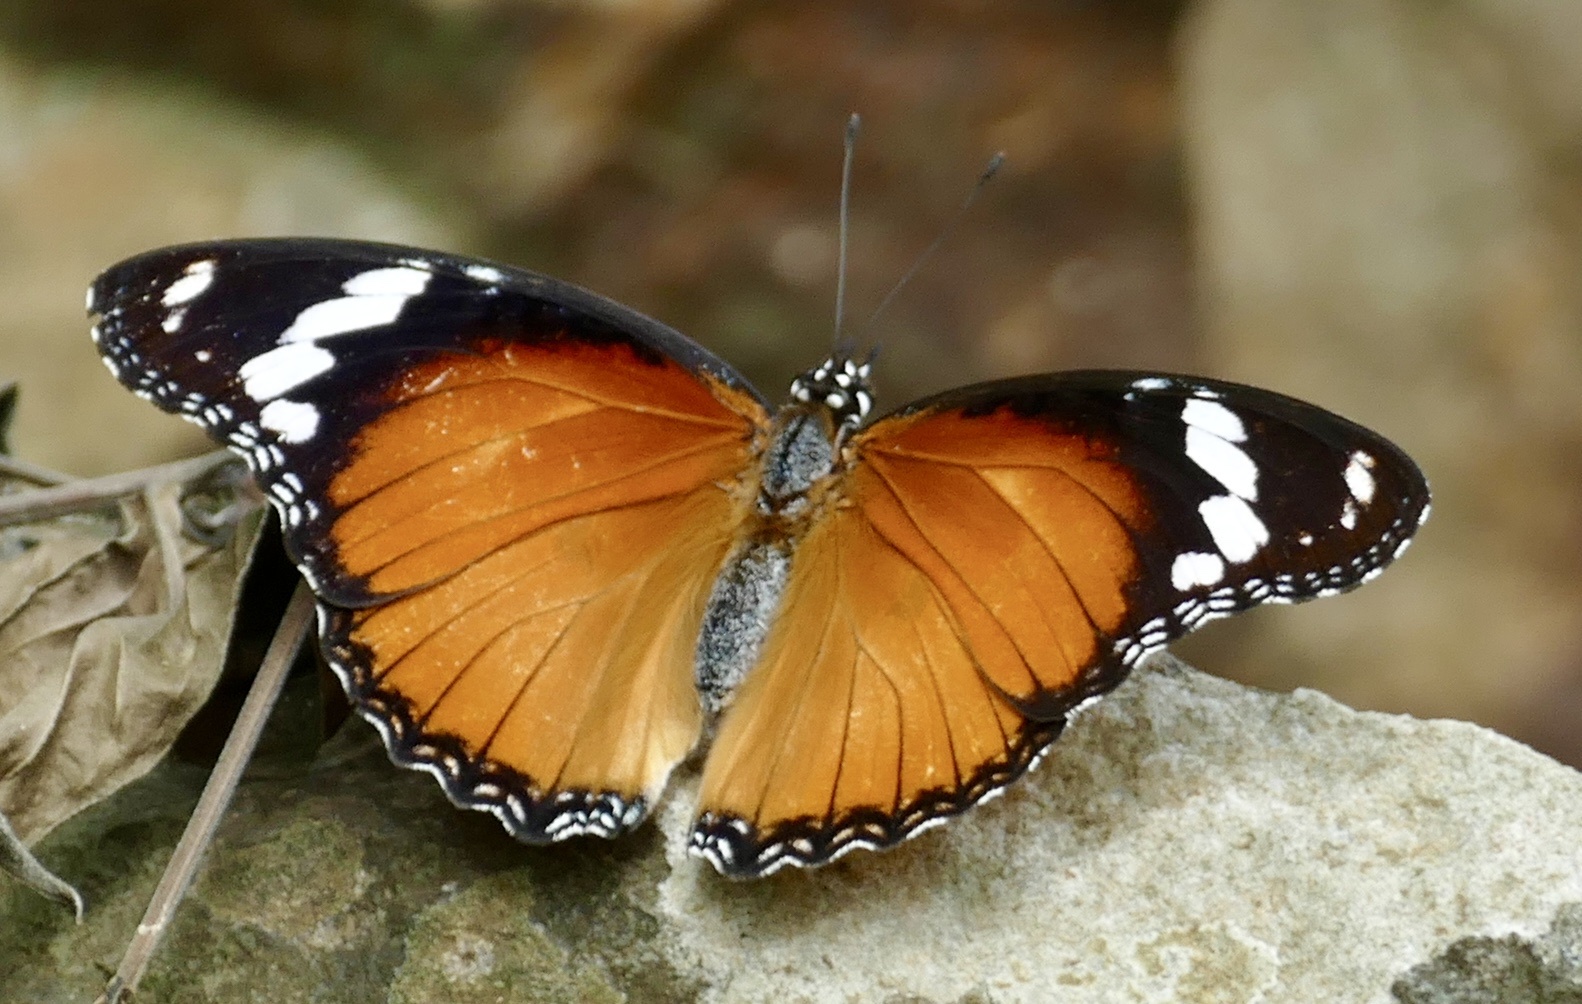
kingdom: Animalia
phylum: Arthropoda
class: Insecta
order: Lepidoptera
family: Nymphalidae
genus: Hypolimnas
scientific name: Hypolimnas misippus
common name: False plain tiger
